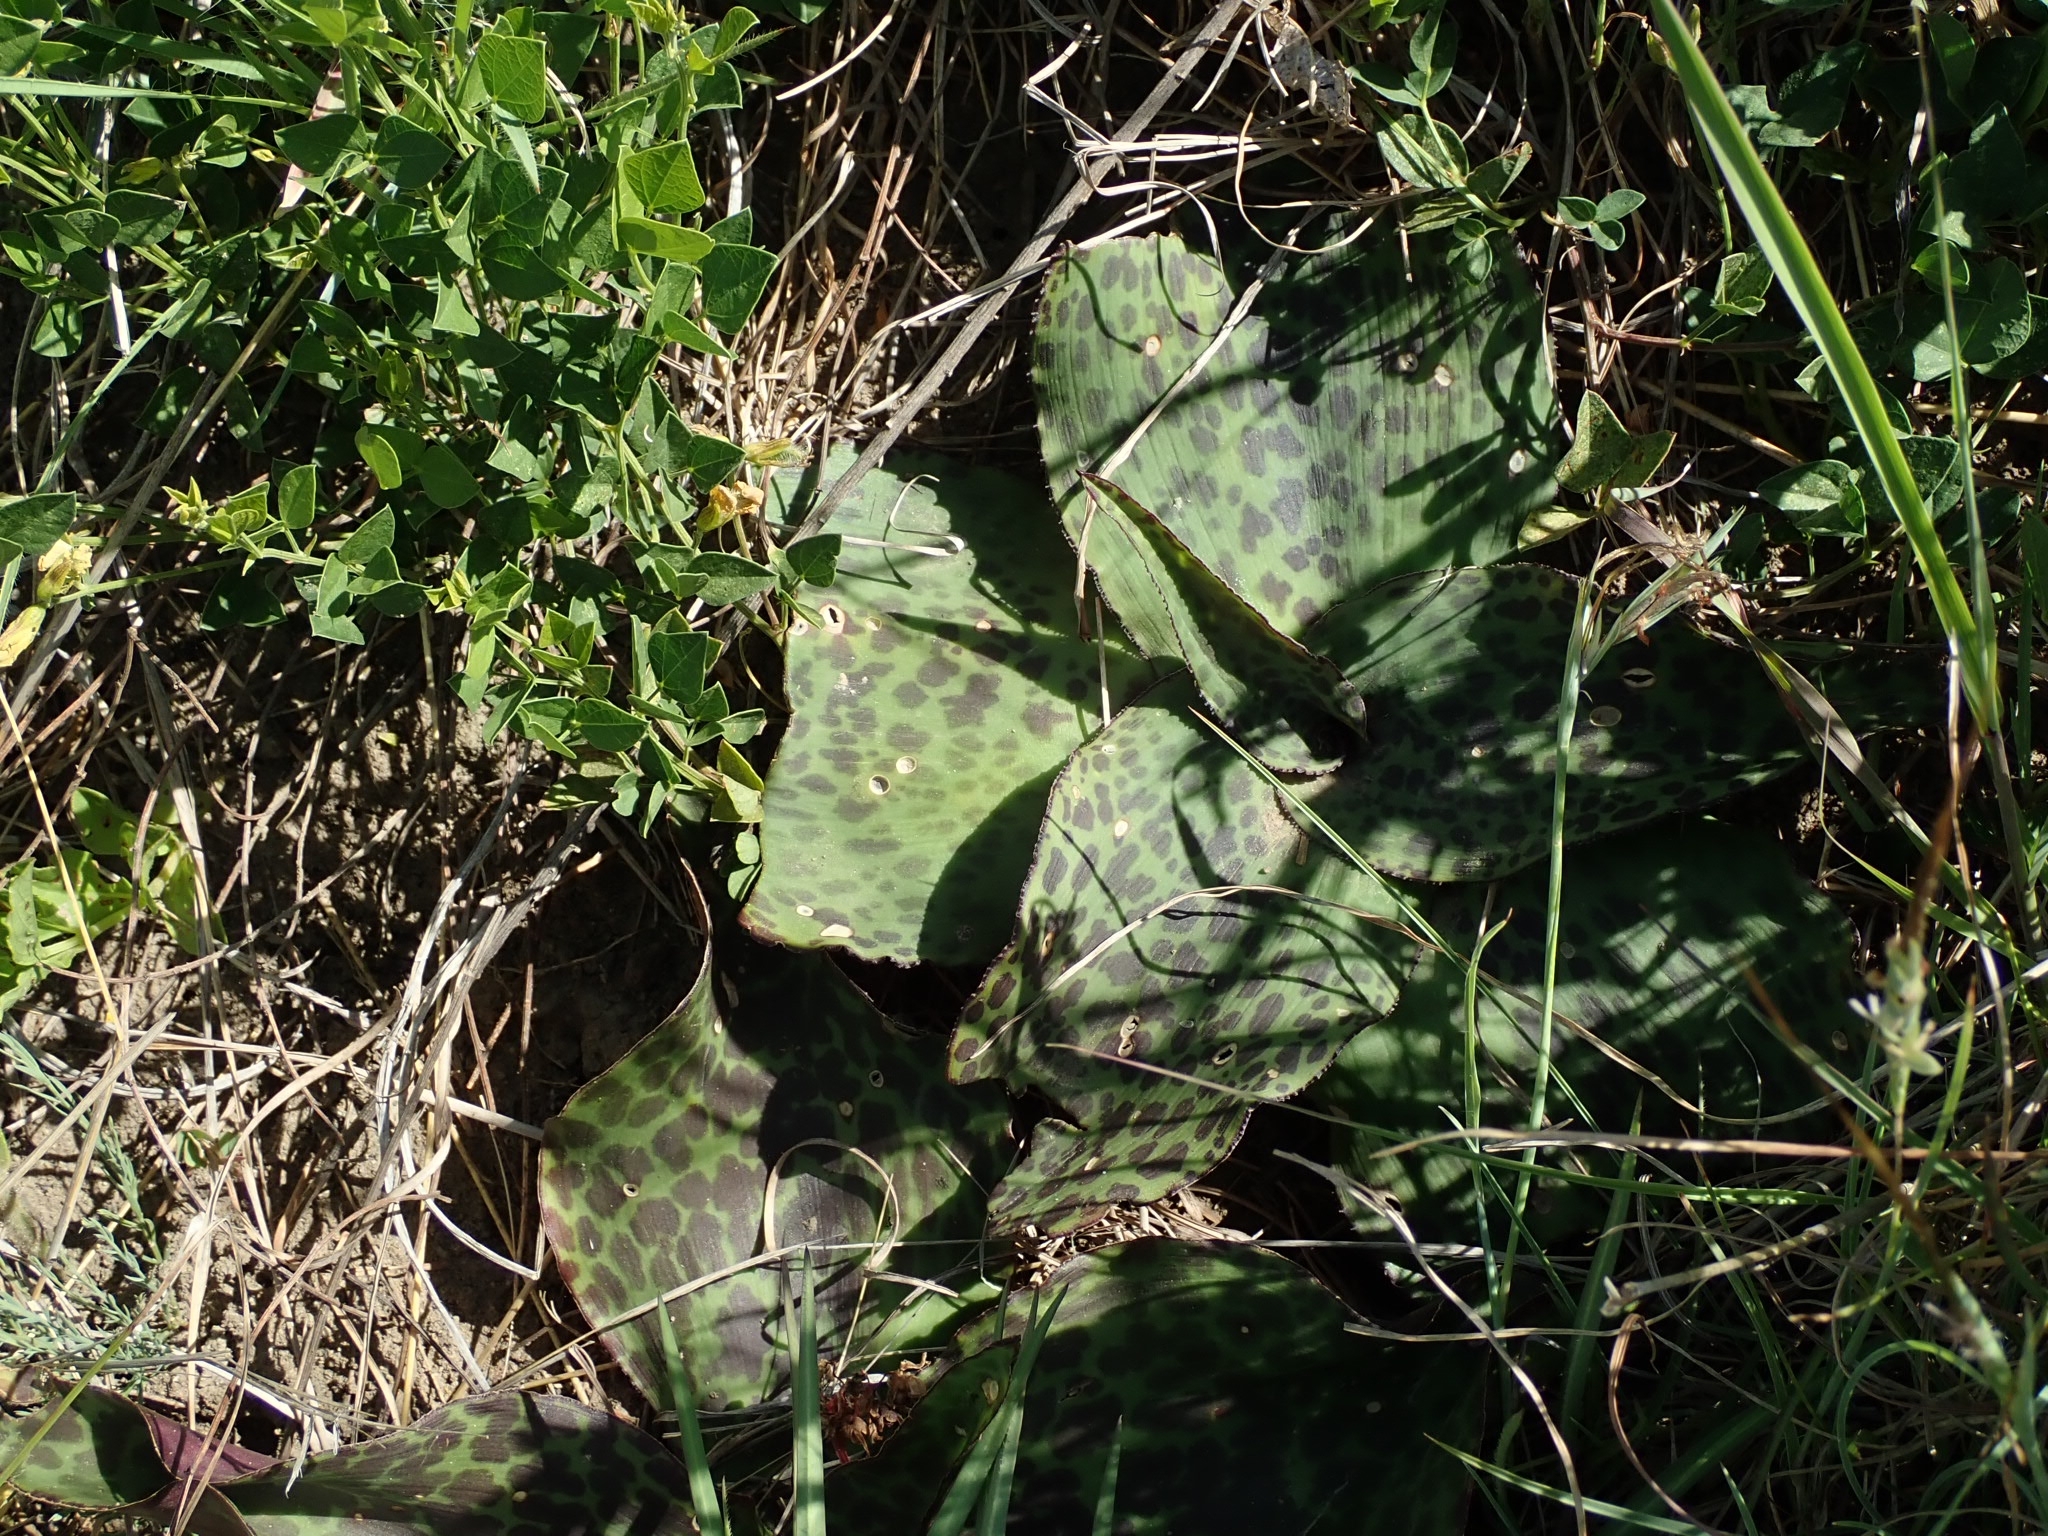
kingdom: Plantae
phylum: Tracheophyta
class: Liliopsida
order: Asparagales
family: Asparagaceae
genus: Ledebouria
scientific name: Ledebouria ovatifolia
